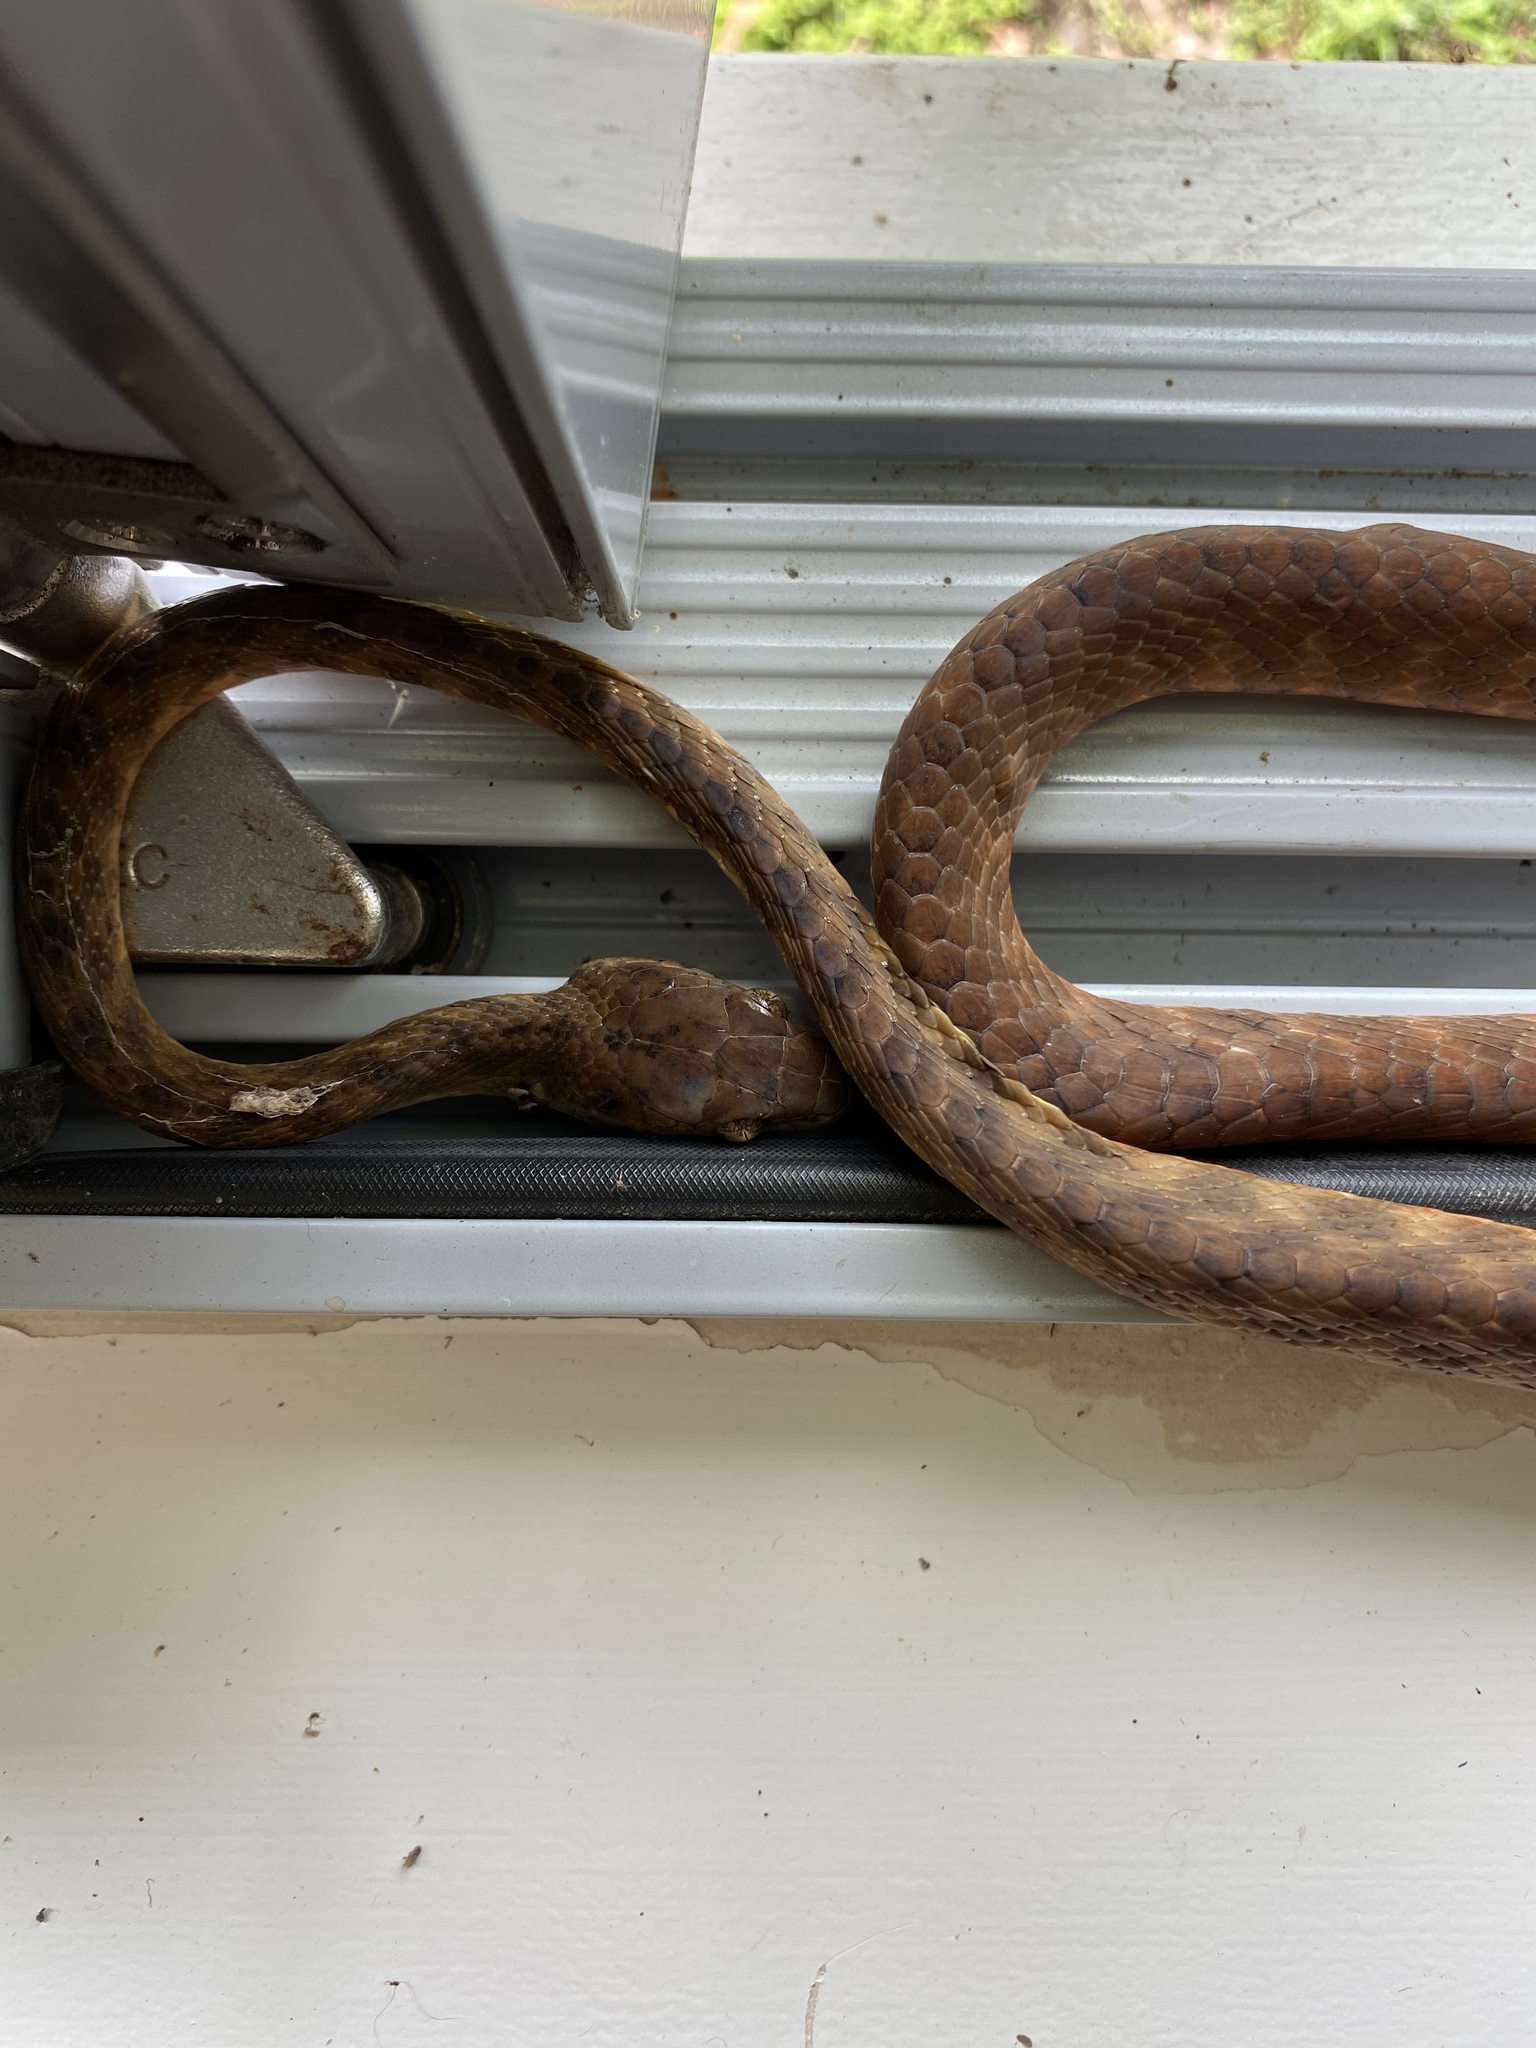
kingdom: Animalia
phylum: Chordata
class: Squamata
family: Colubridae
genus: Boiga
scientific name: Boiga irregularis
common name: Brown tree snake
